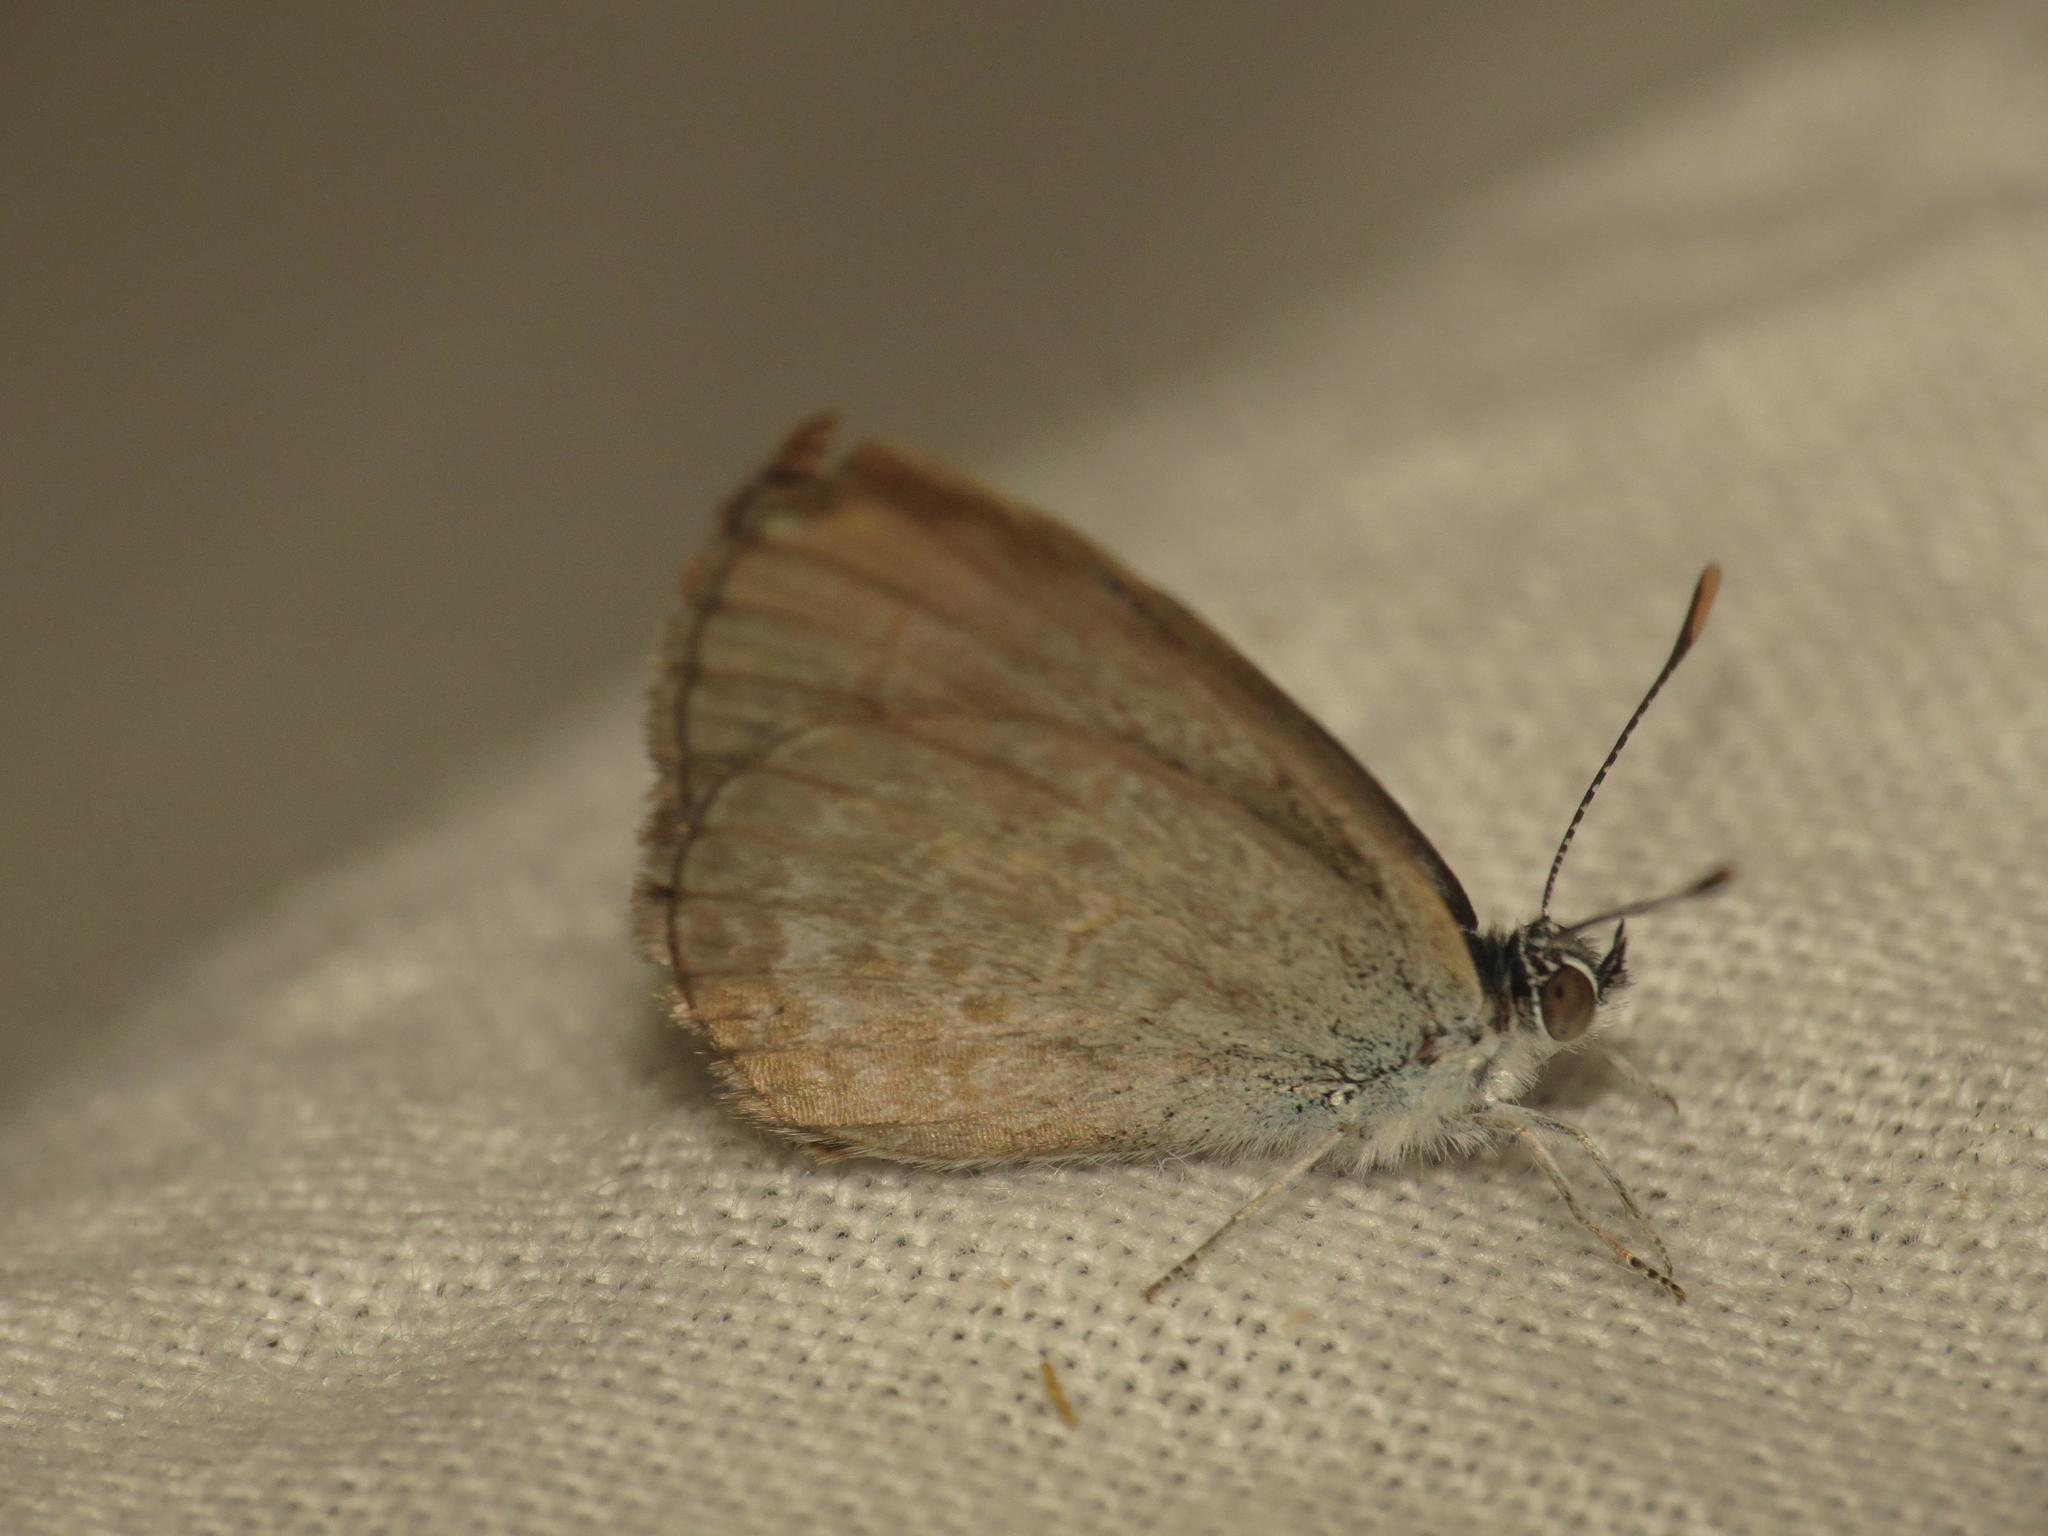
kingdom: Animalia
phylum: Arthropoda
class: Insecta
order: Lepidoptera
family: Lycaenidae
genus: Zizina
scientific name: Zizina labradus
